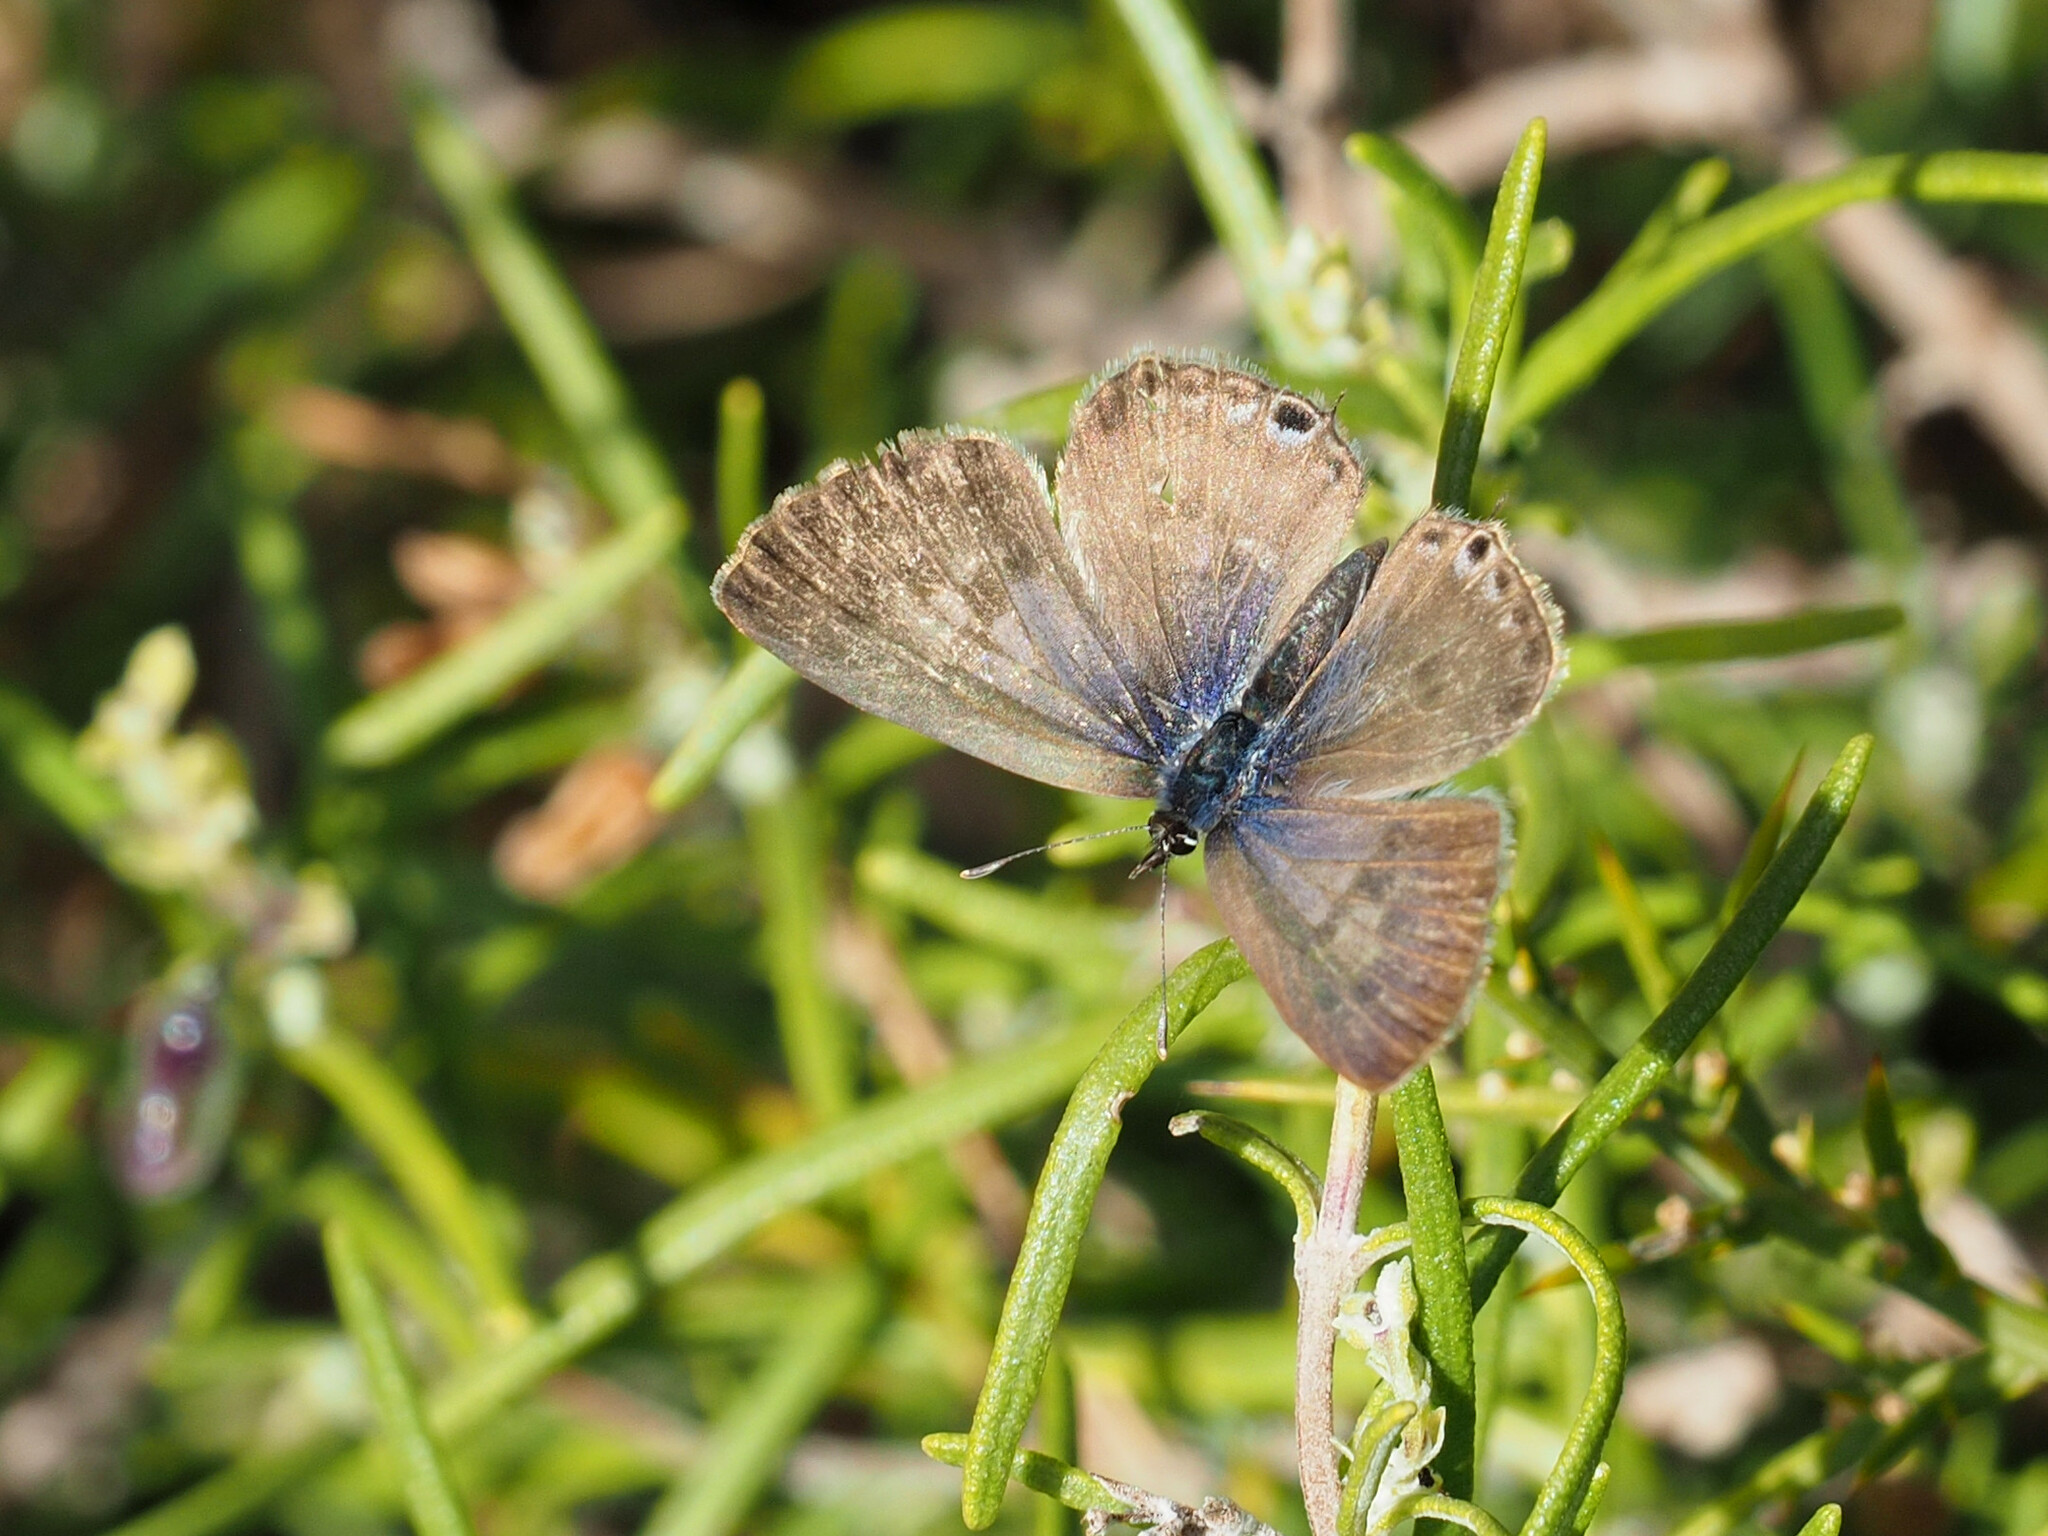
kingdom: Animalia
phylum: Arthropoda
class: Insecta
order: Lepidoptera
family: Lycaenidae
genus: Leptotes
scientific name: Leptotes pirithous
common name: Lang's short-tailed blue
